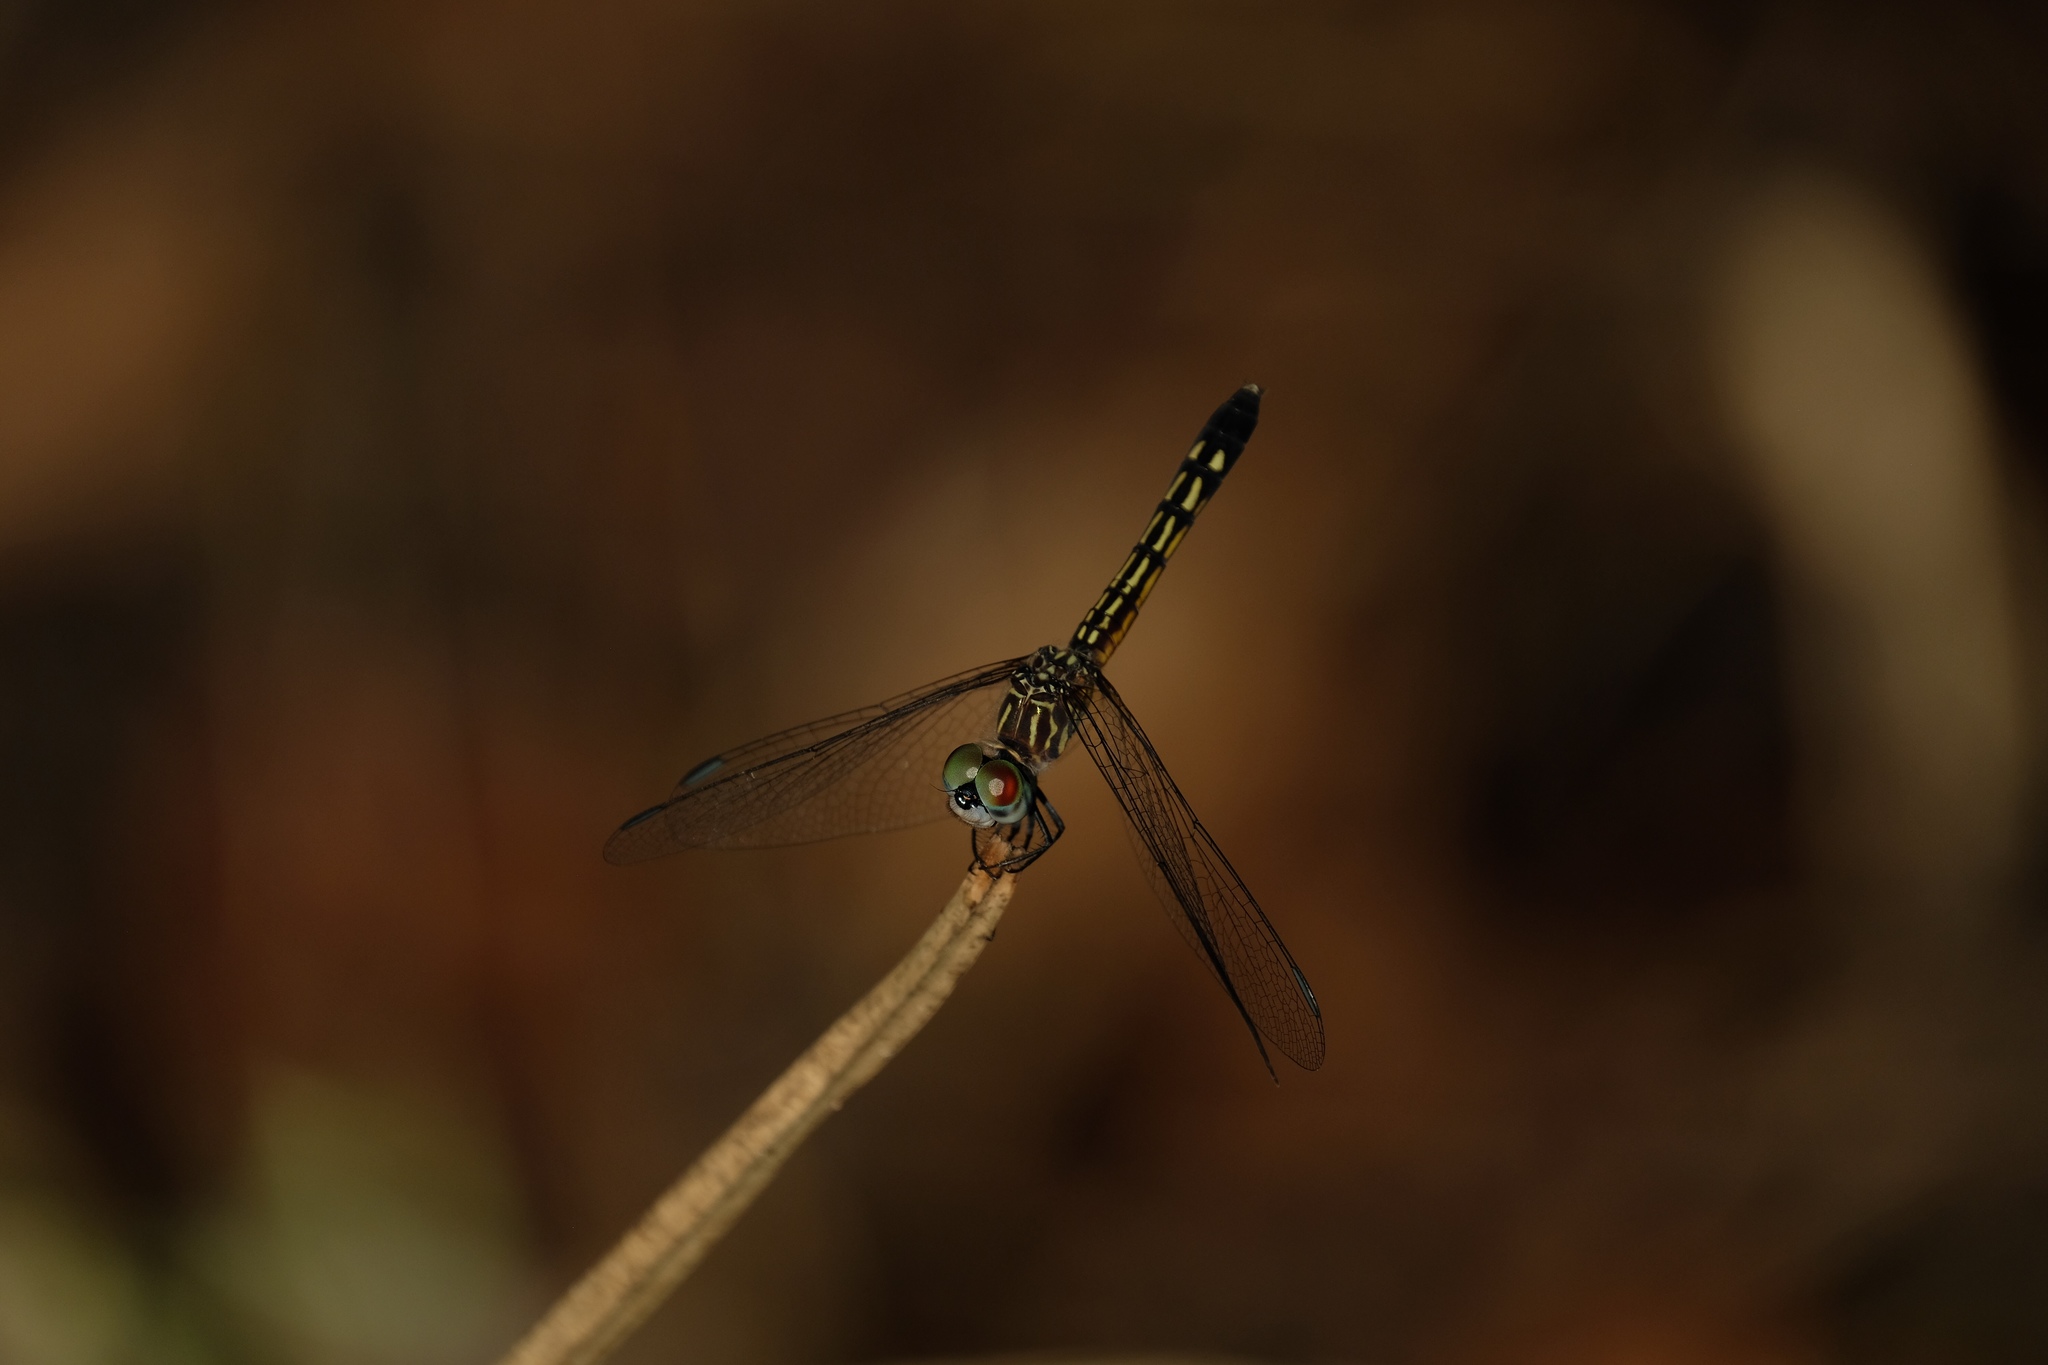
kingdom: Animalia
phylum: Arthropoda
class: Insecta
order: Odonata
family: Libellulidae
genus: Pachydiplax
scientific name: Pachydiplax longipennis
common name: Blue dasher
